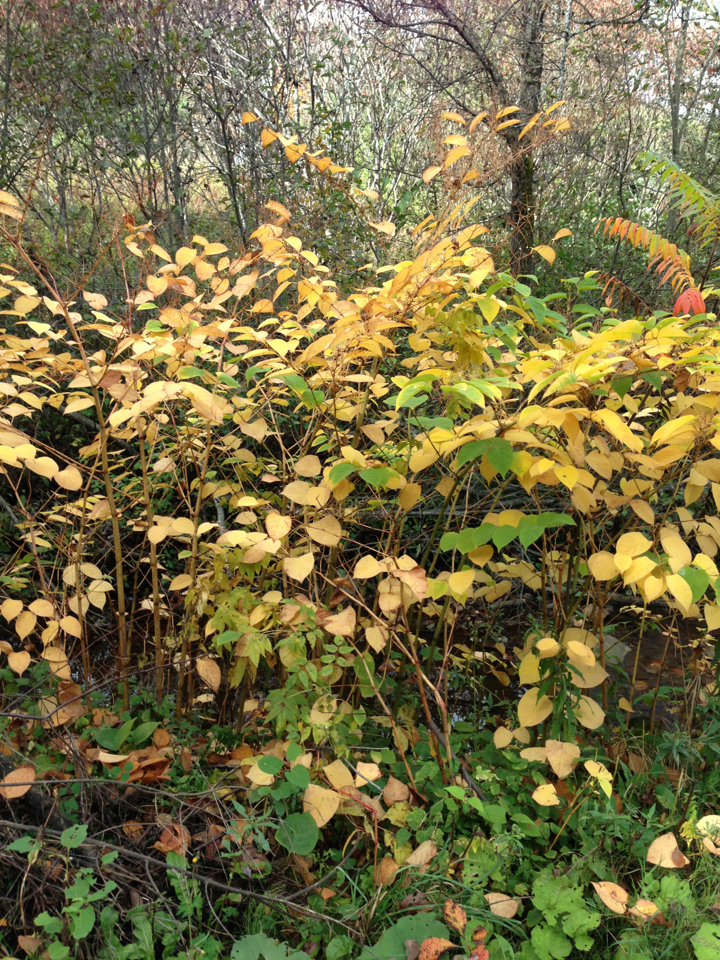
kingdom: Plantae
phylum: Tracheophyta
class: Magnoliopsida
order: Caryophyllales
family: Polygonaceae
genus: Reynoutria
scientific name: Reynoutria japonica
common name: Japanese knotweed
